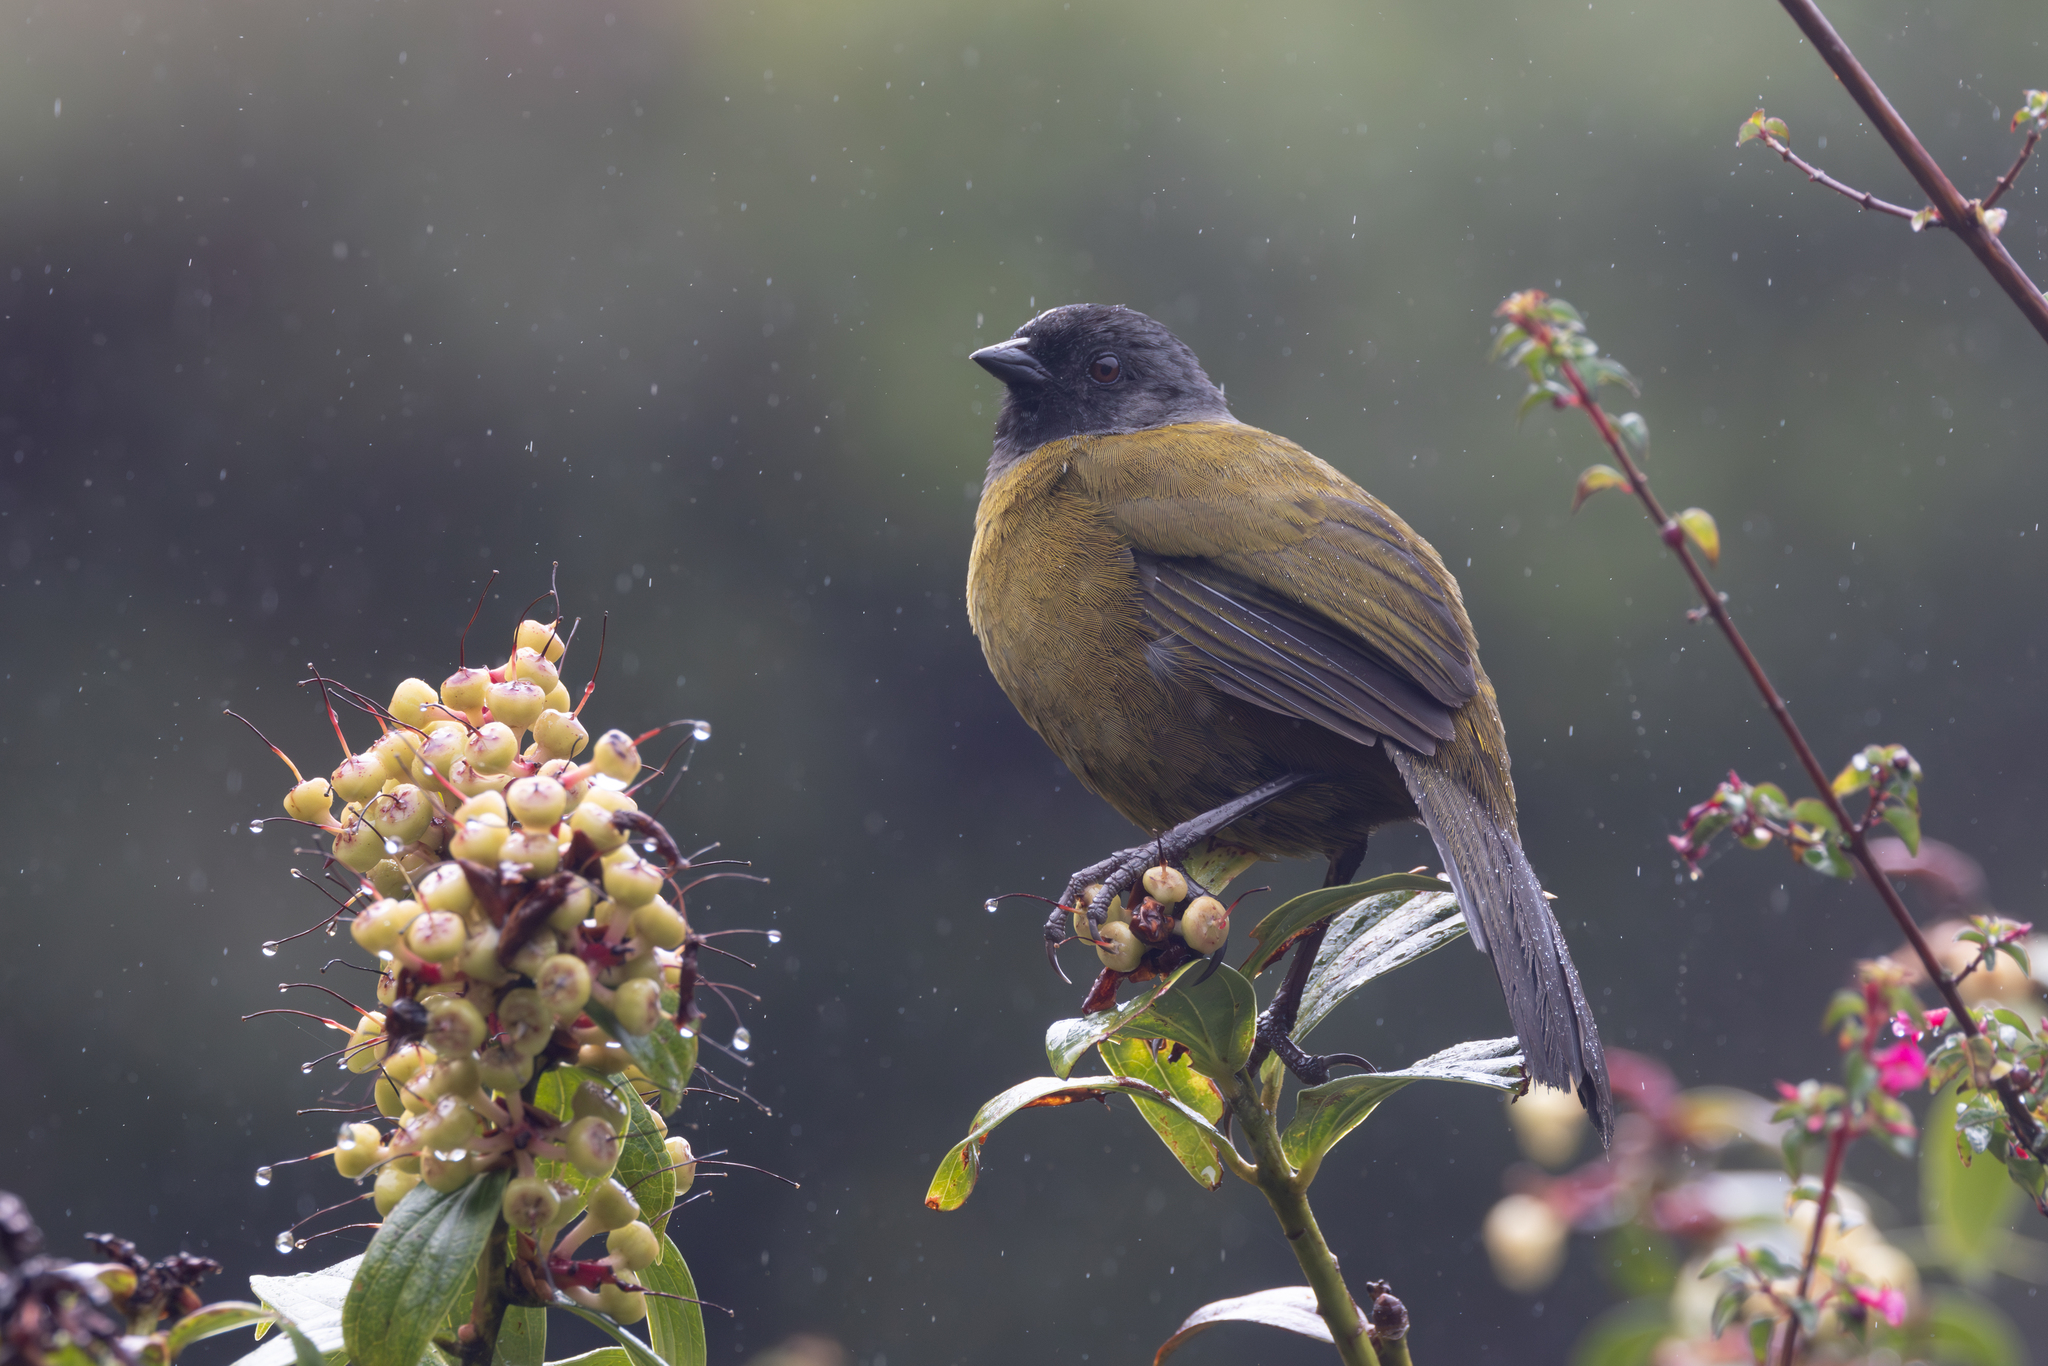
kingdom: Animalia
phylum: Chordata
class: Aves
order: Passeriformes
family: Passerellidae
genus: Pezopetes
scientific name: Pezopetes capitalis
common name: Large-footed finch
